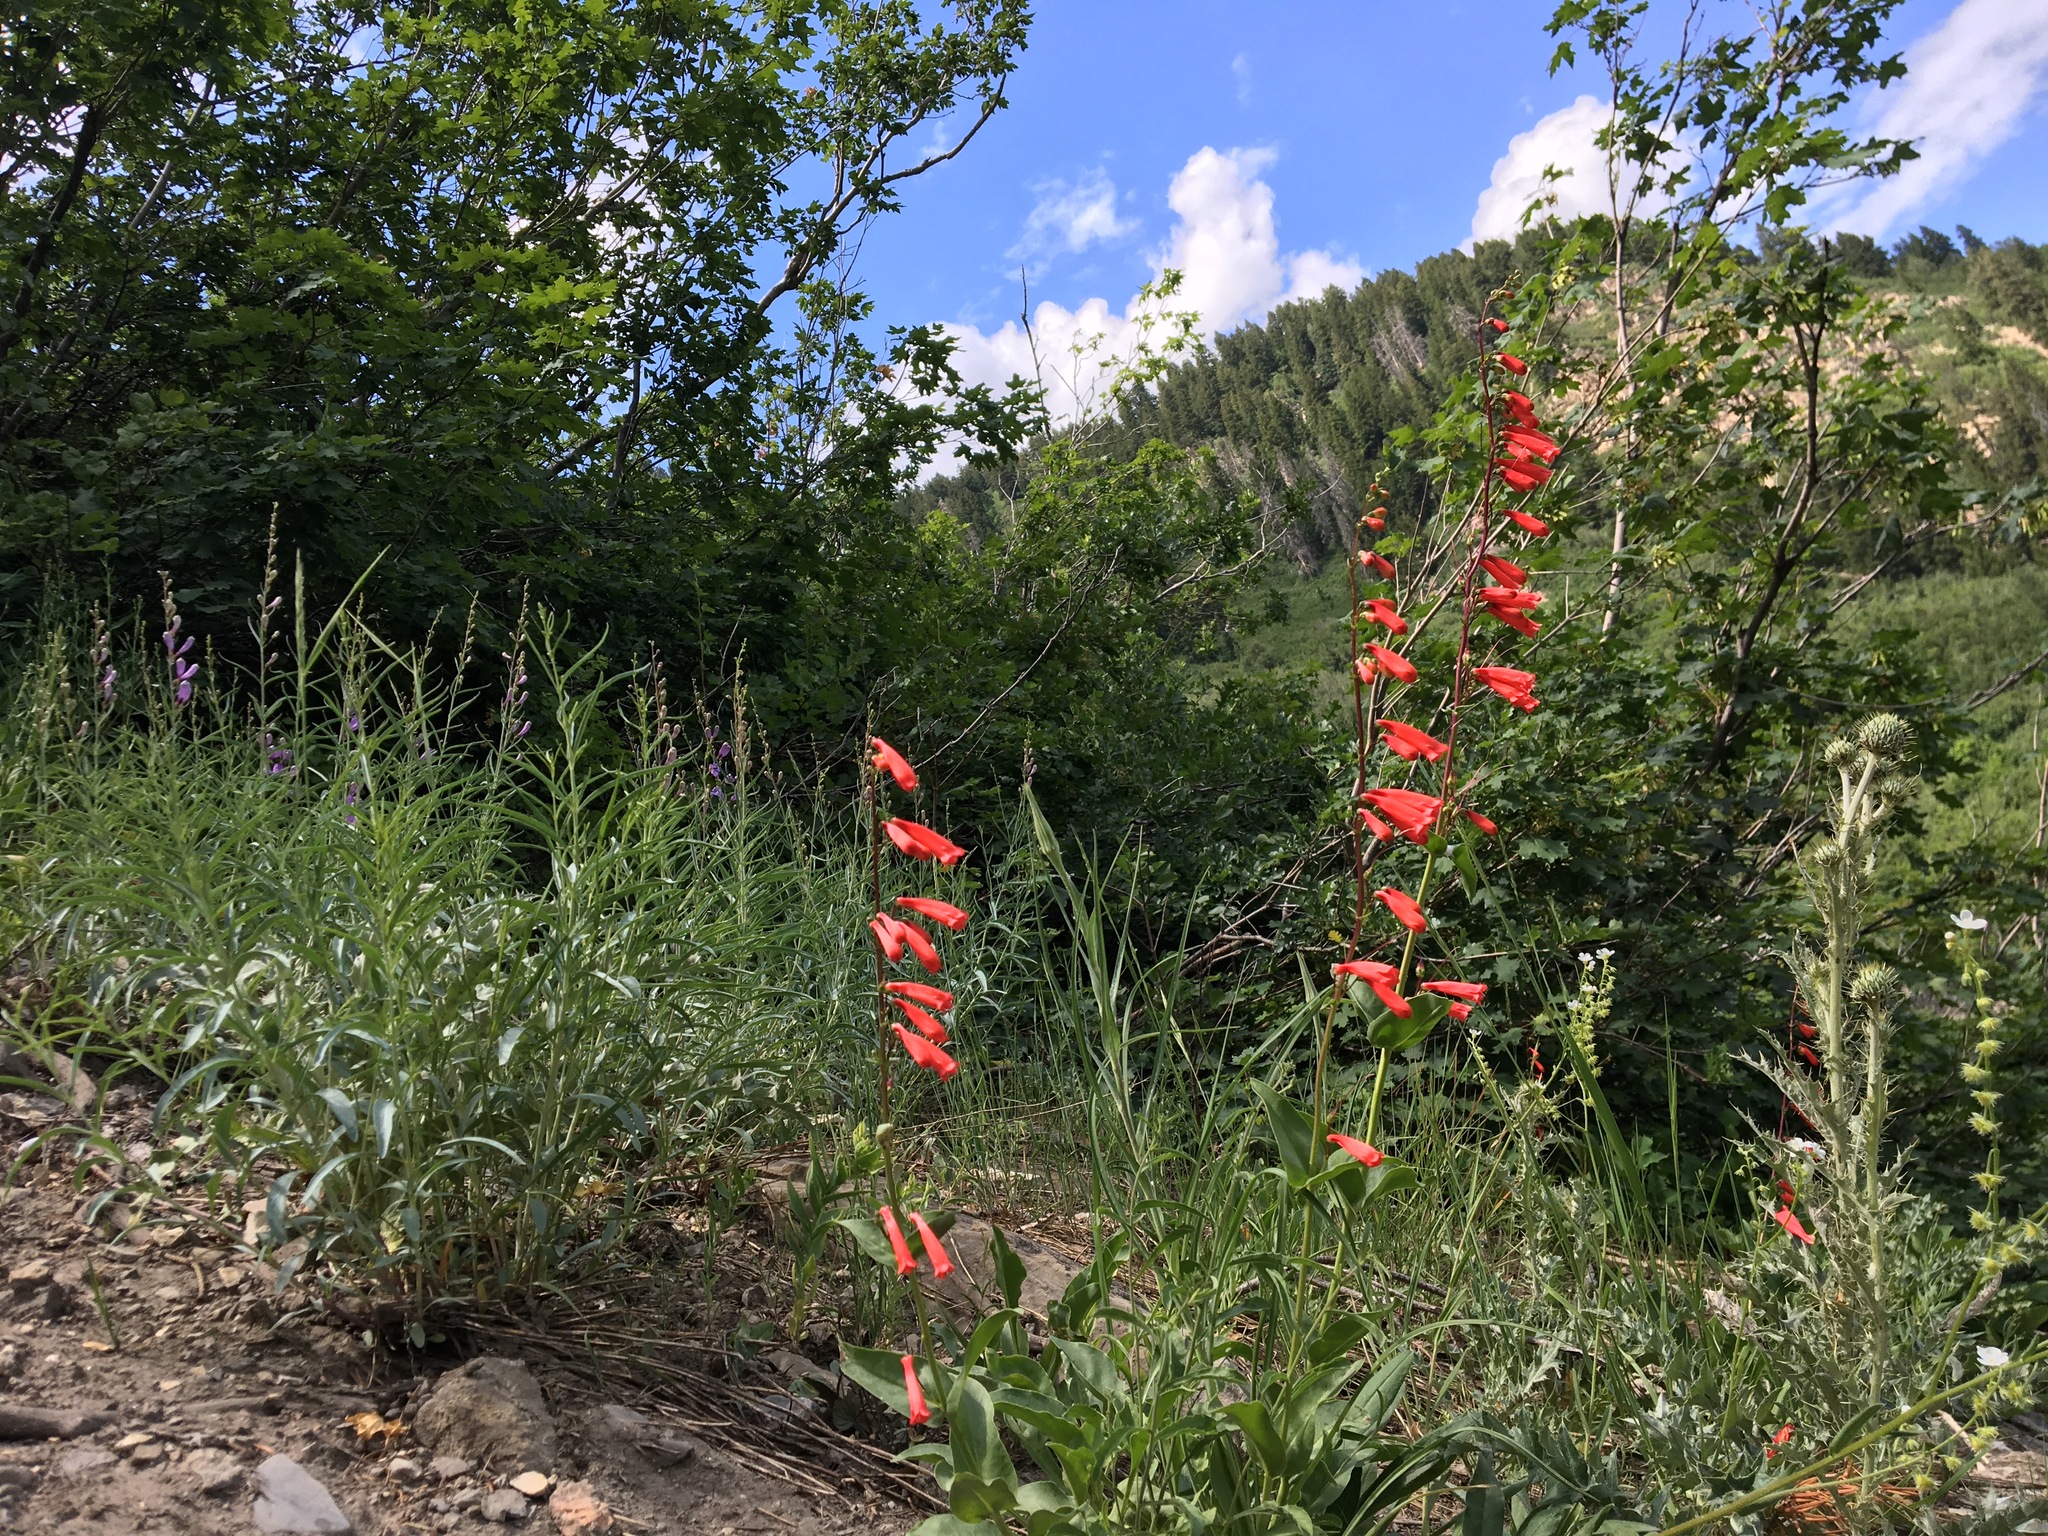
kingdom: Plantae
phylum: Tracheophyta
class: Magnoliopsida
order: Lamiales
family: Plantaginaceae
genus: Penstemon
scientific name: Penstemon eatonii
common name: Eaton's penstemon
